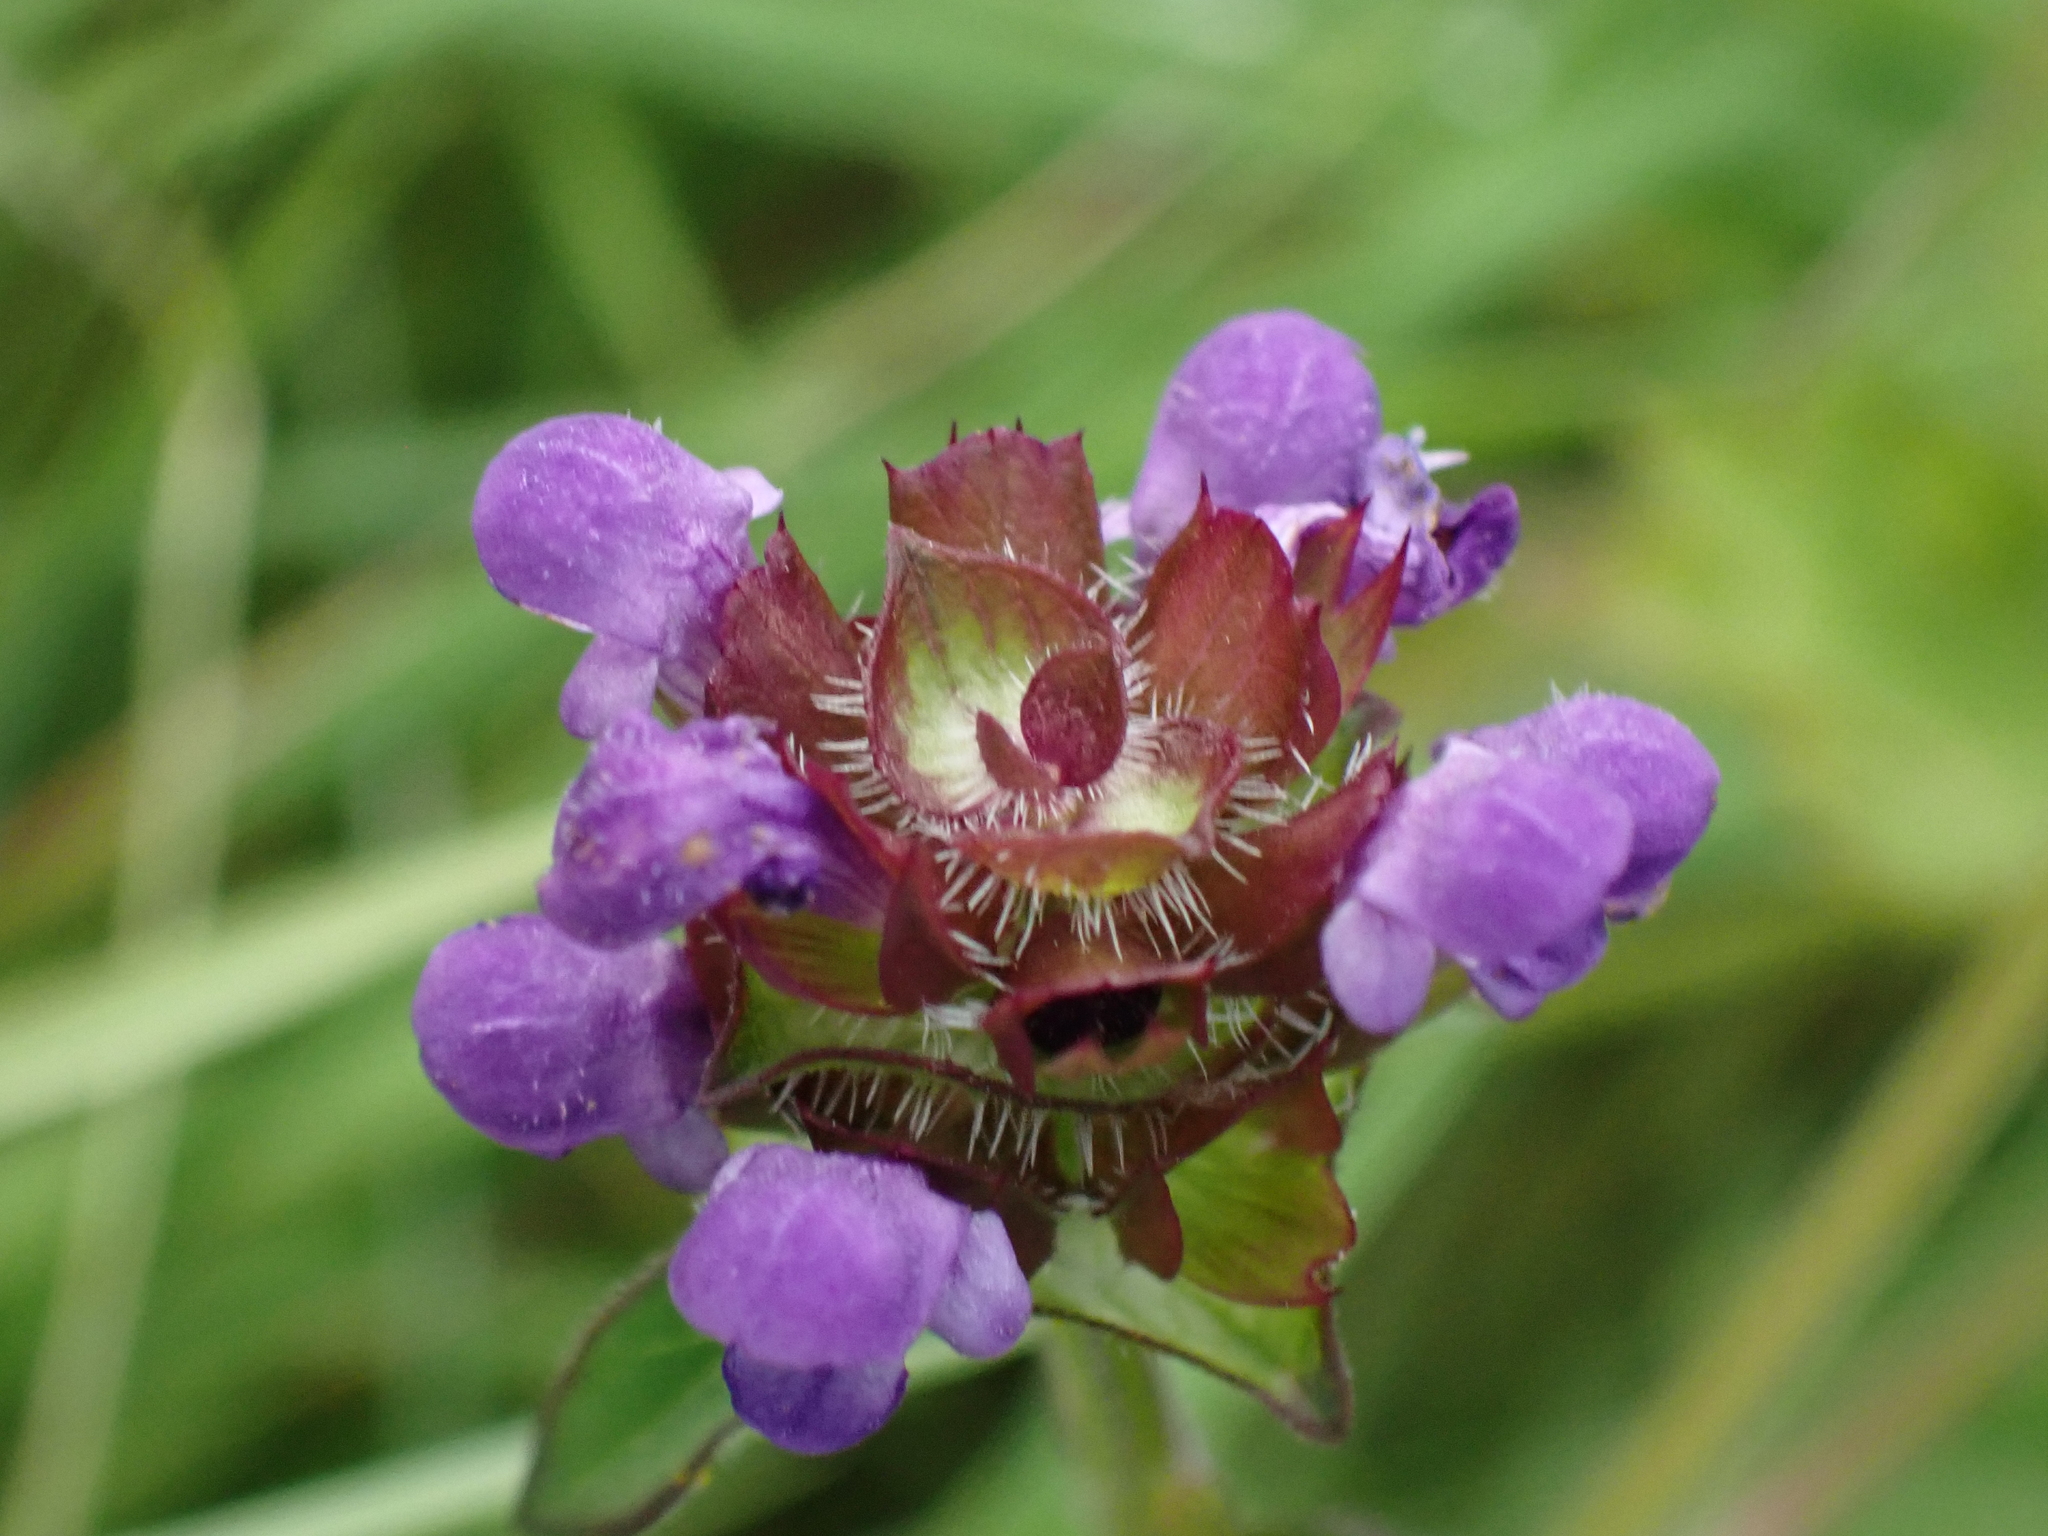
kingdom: Plantae
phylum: Tracheophyta
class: Magnoliopsida
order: Lamiales
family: Lamiaceae
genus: Prunella
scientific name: Prunella vulgaris
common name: Heal-all
